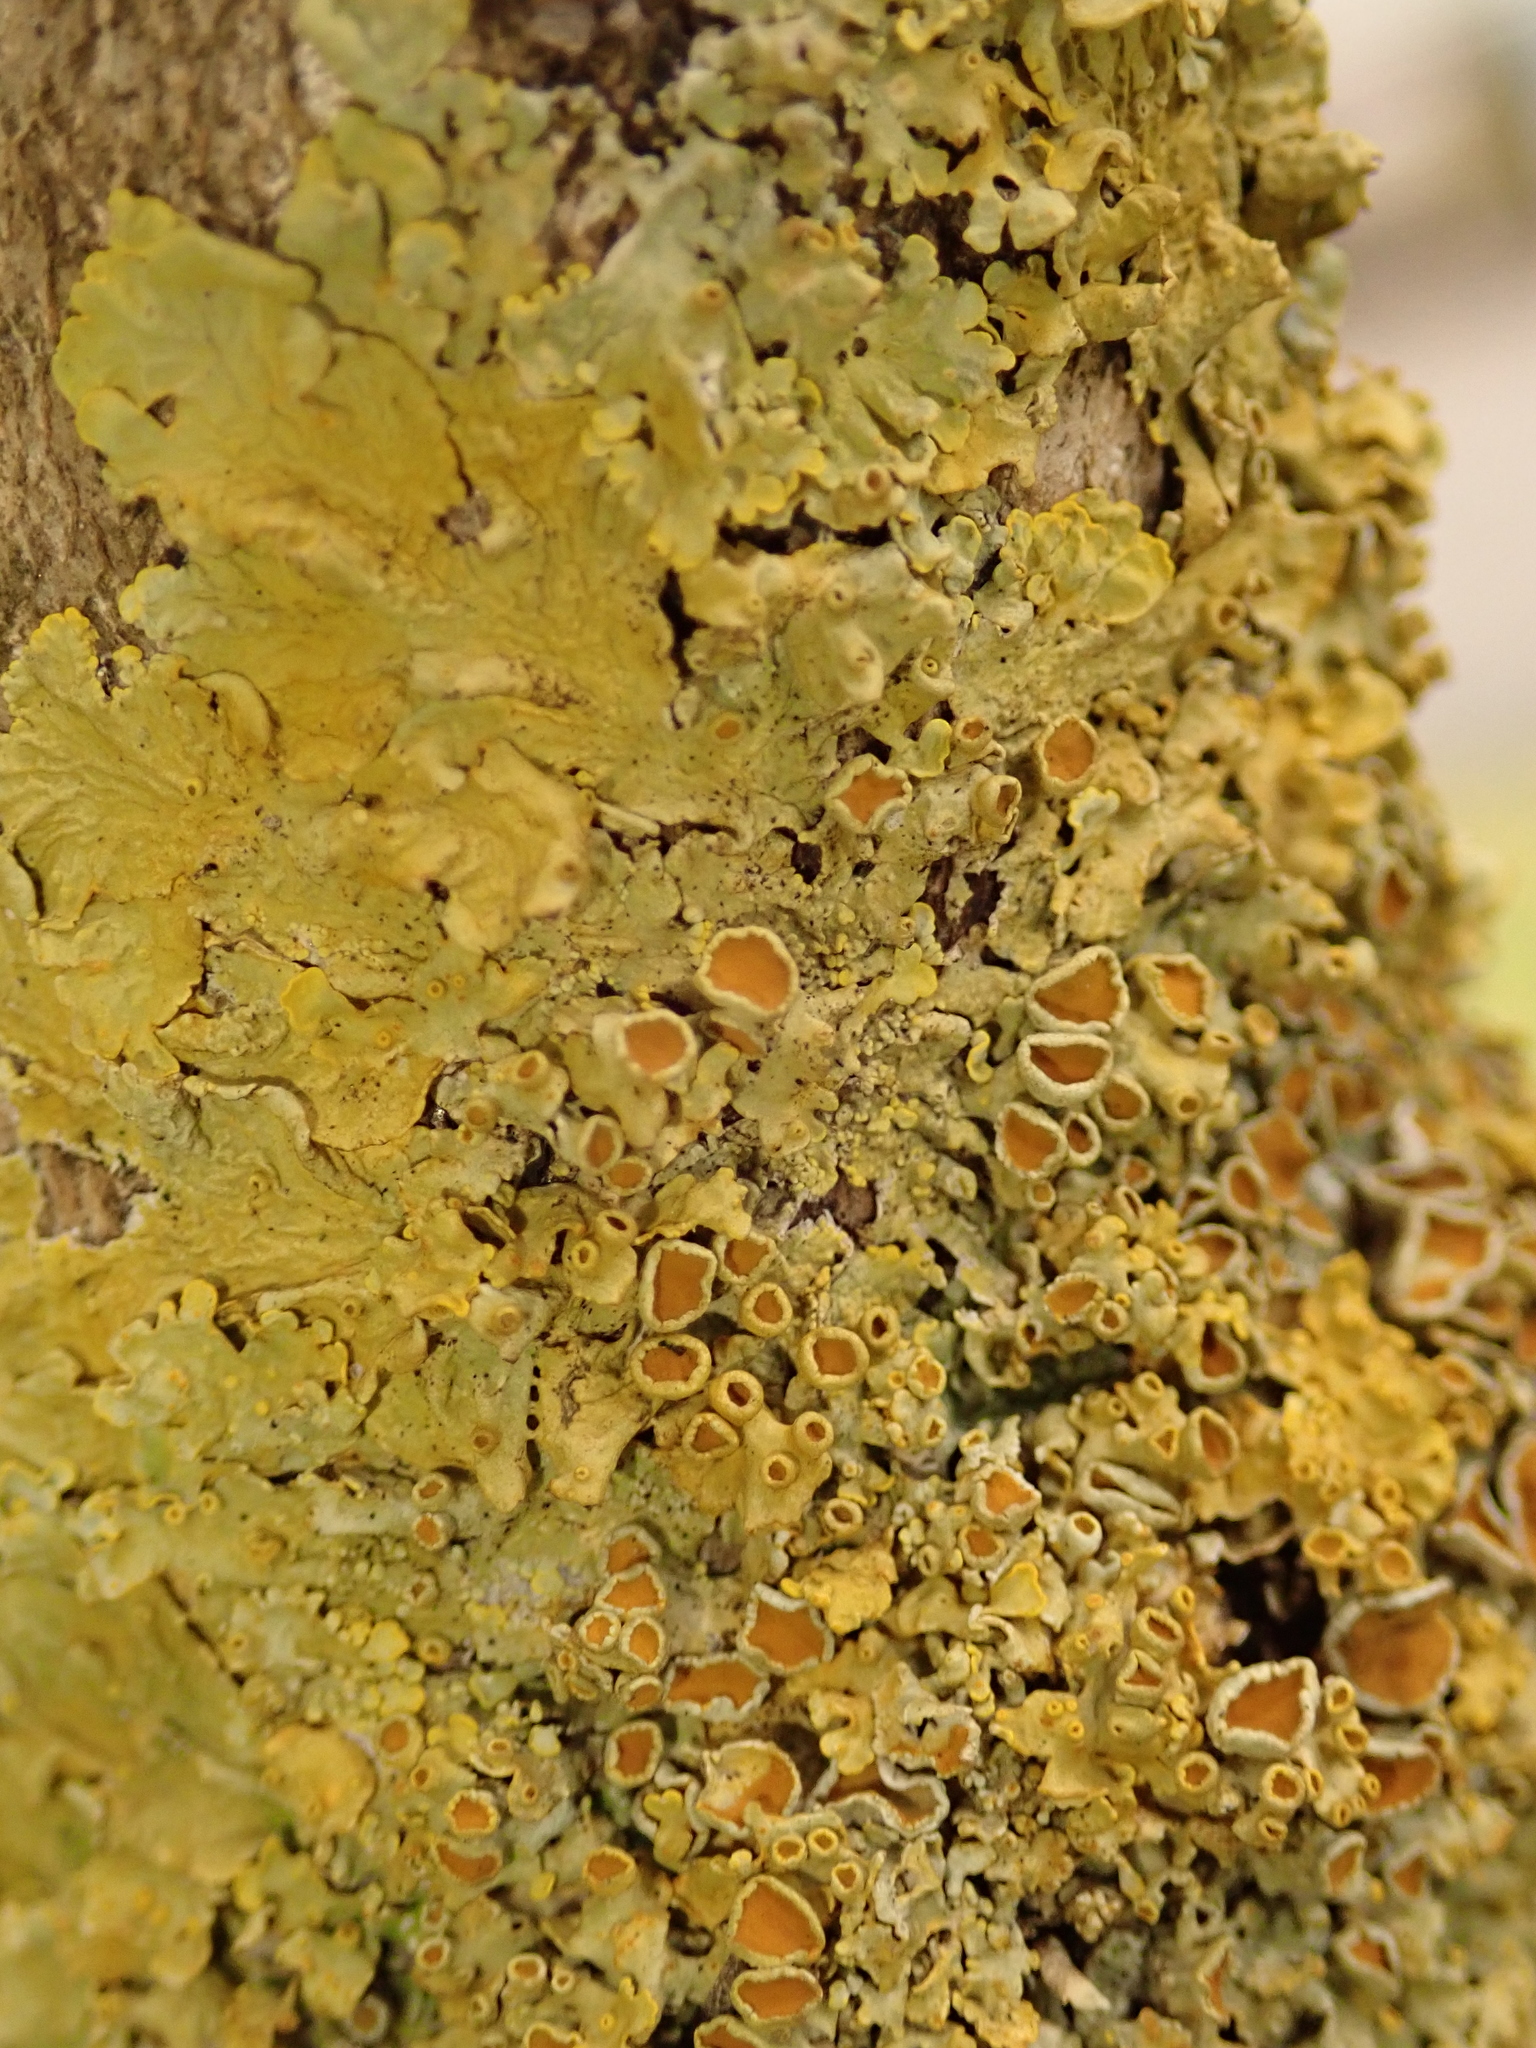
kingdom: Fungi
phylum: Ascomycota
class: Lecanoromycetes
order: Teloschistales
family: Teloschistaceae
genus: Xanthoria
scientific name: Xanthoria parietina
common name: Common orange lichen
